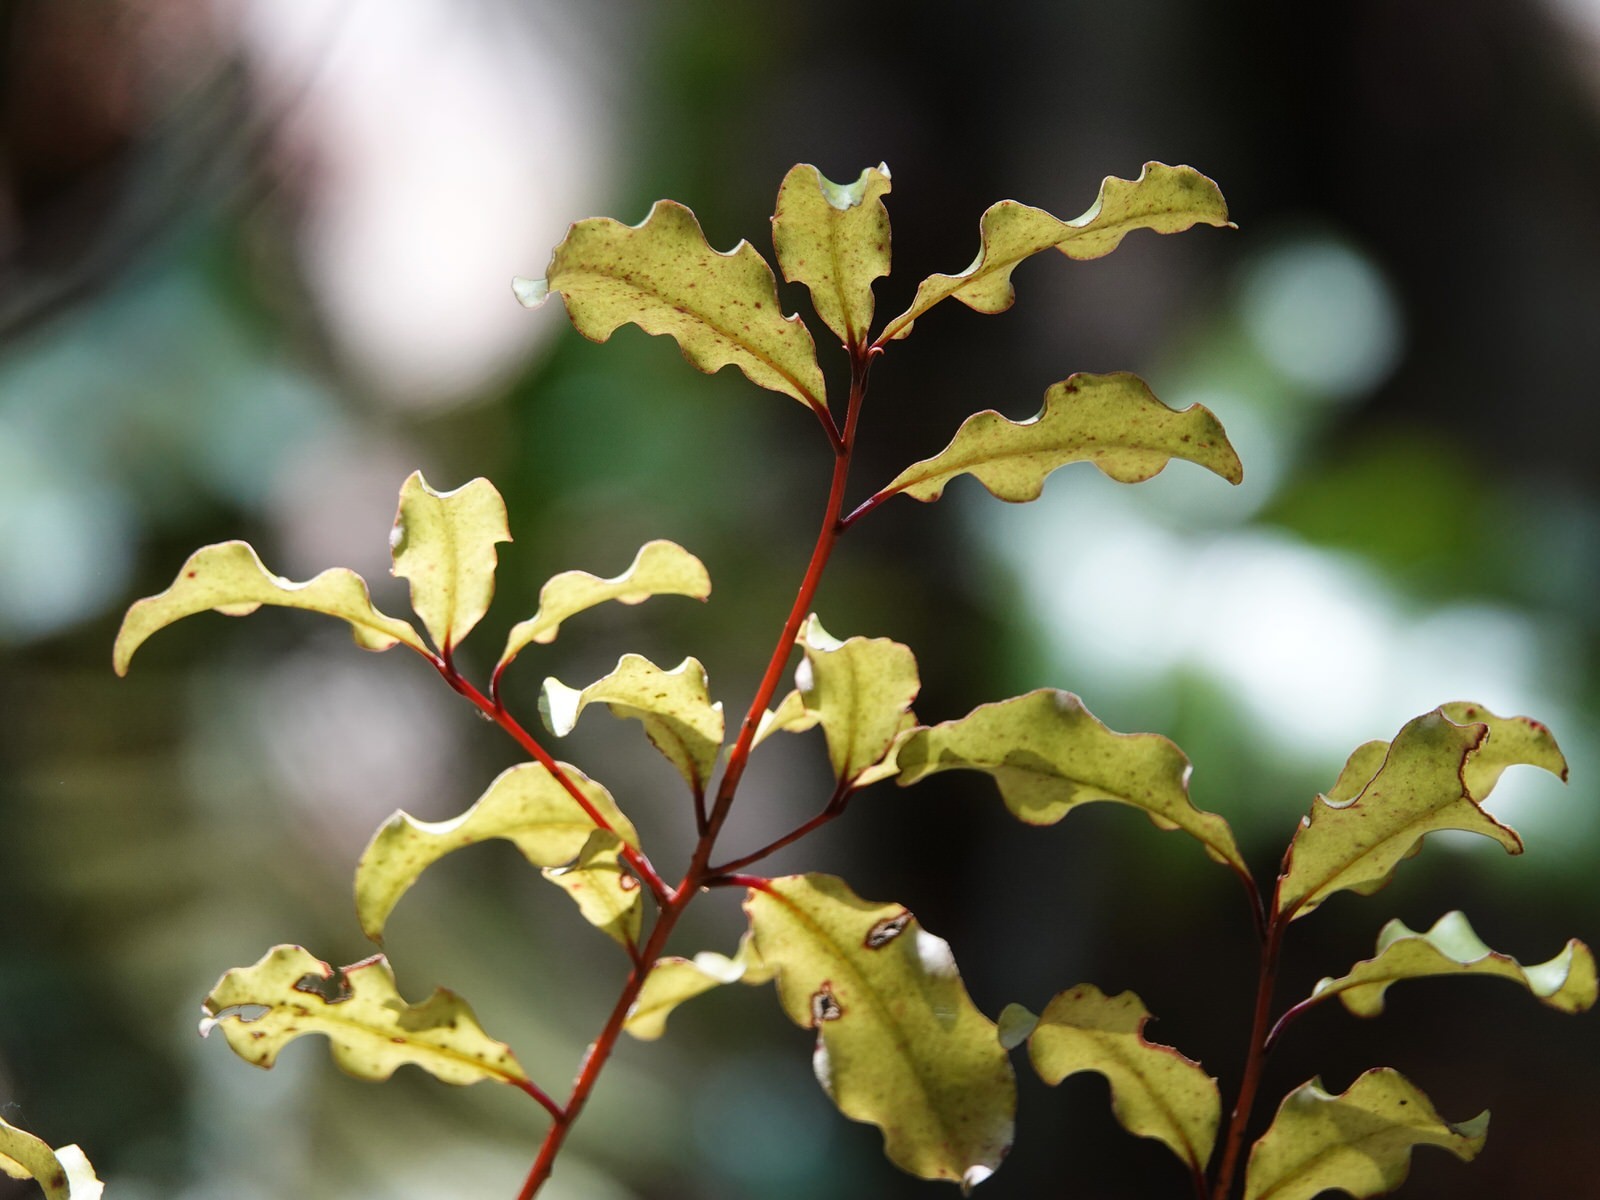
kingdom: Plantae
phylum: Tracheophyta
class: Magnoliopsida
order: Ericales
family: Primulaceae
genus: Myrsine
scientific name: Myrsine australis
